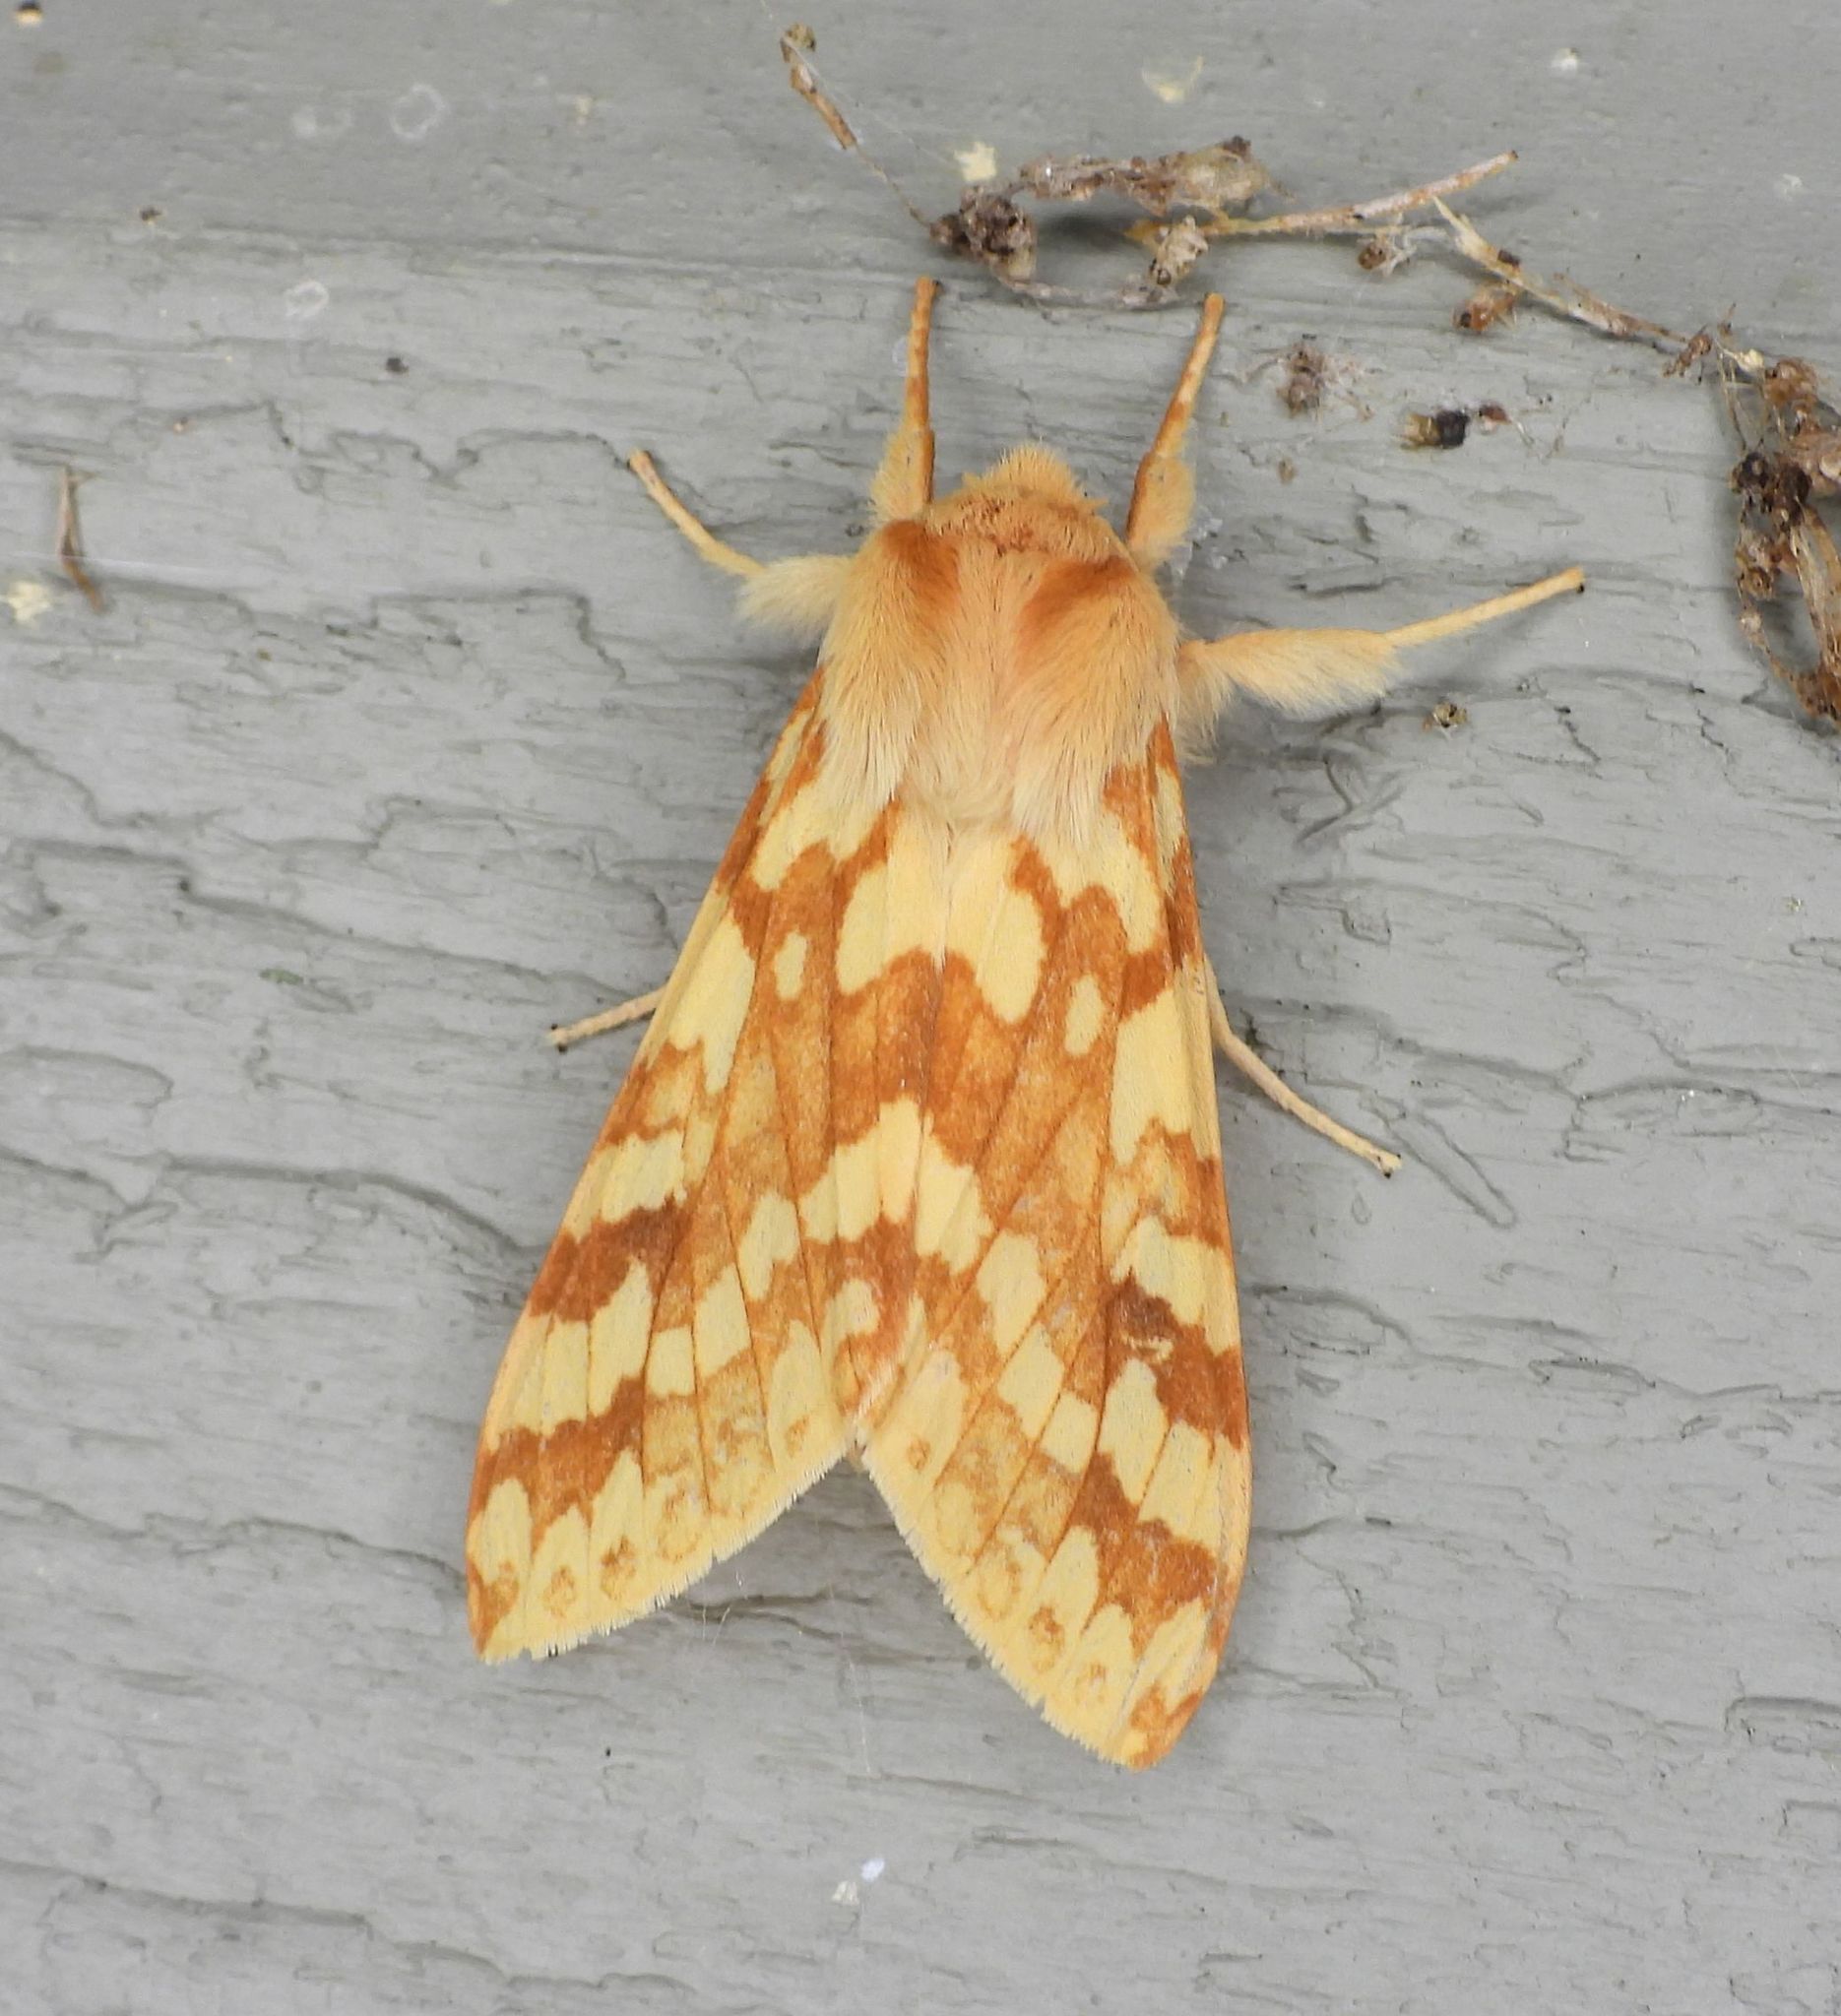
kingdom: Animalia
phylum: Arthropoda
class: Insecta
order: Lepidoptera
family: Erebidae
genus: Lophocampa
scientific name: Lophocampa maculata
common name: Spotted tussock moth
